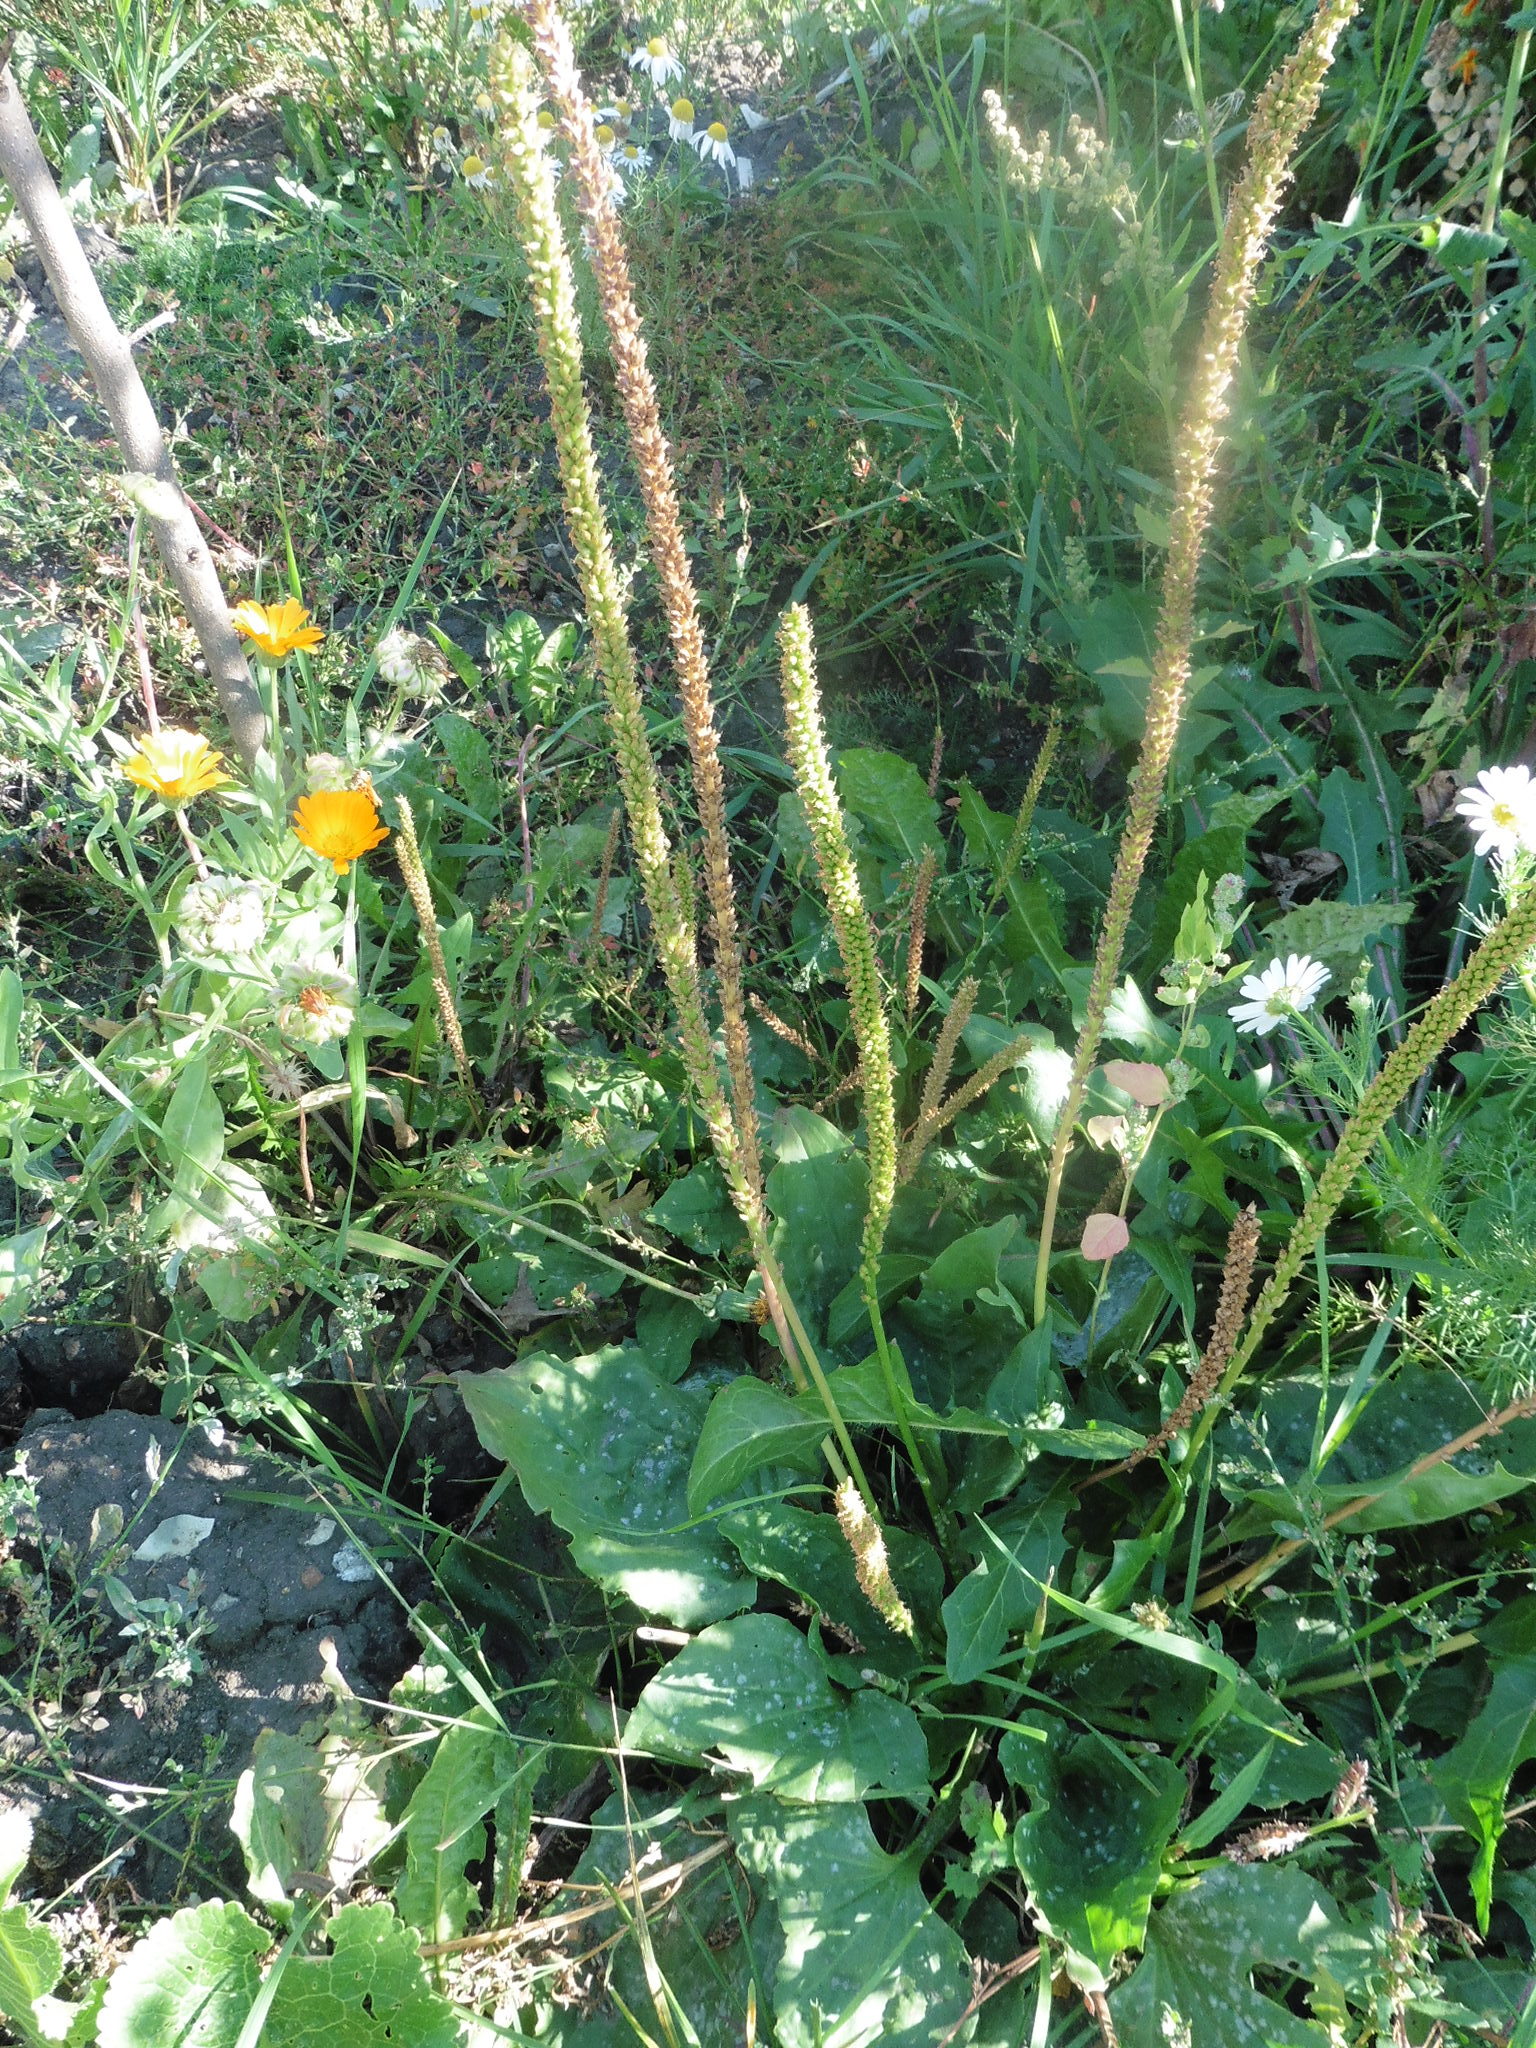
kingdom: Plantae
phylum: Tracheophyta
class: Magnoliopsida
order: Lamiales
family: Plantaginaceae
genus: Plantago
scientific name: Plantago major
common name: Common plantain
